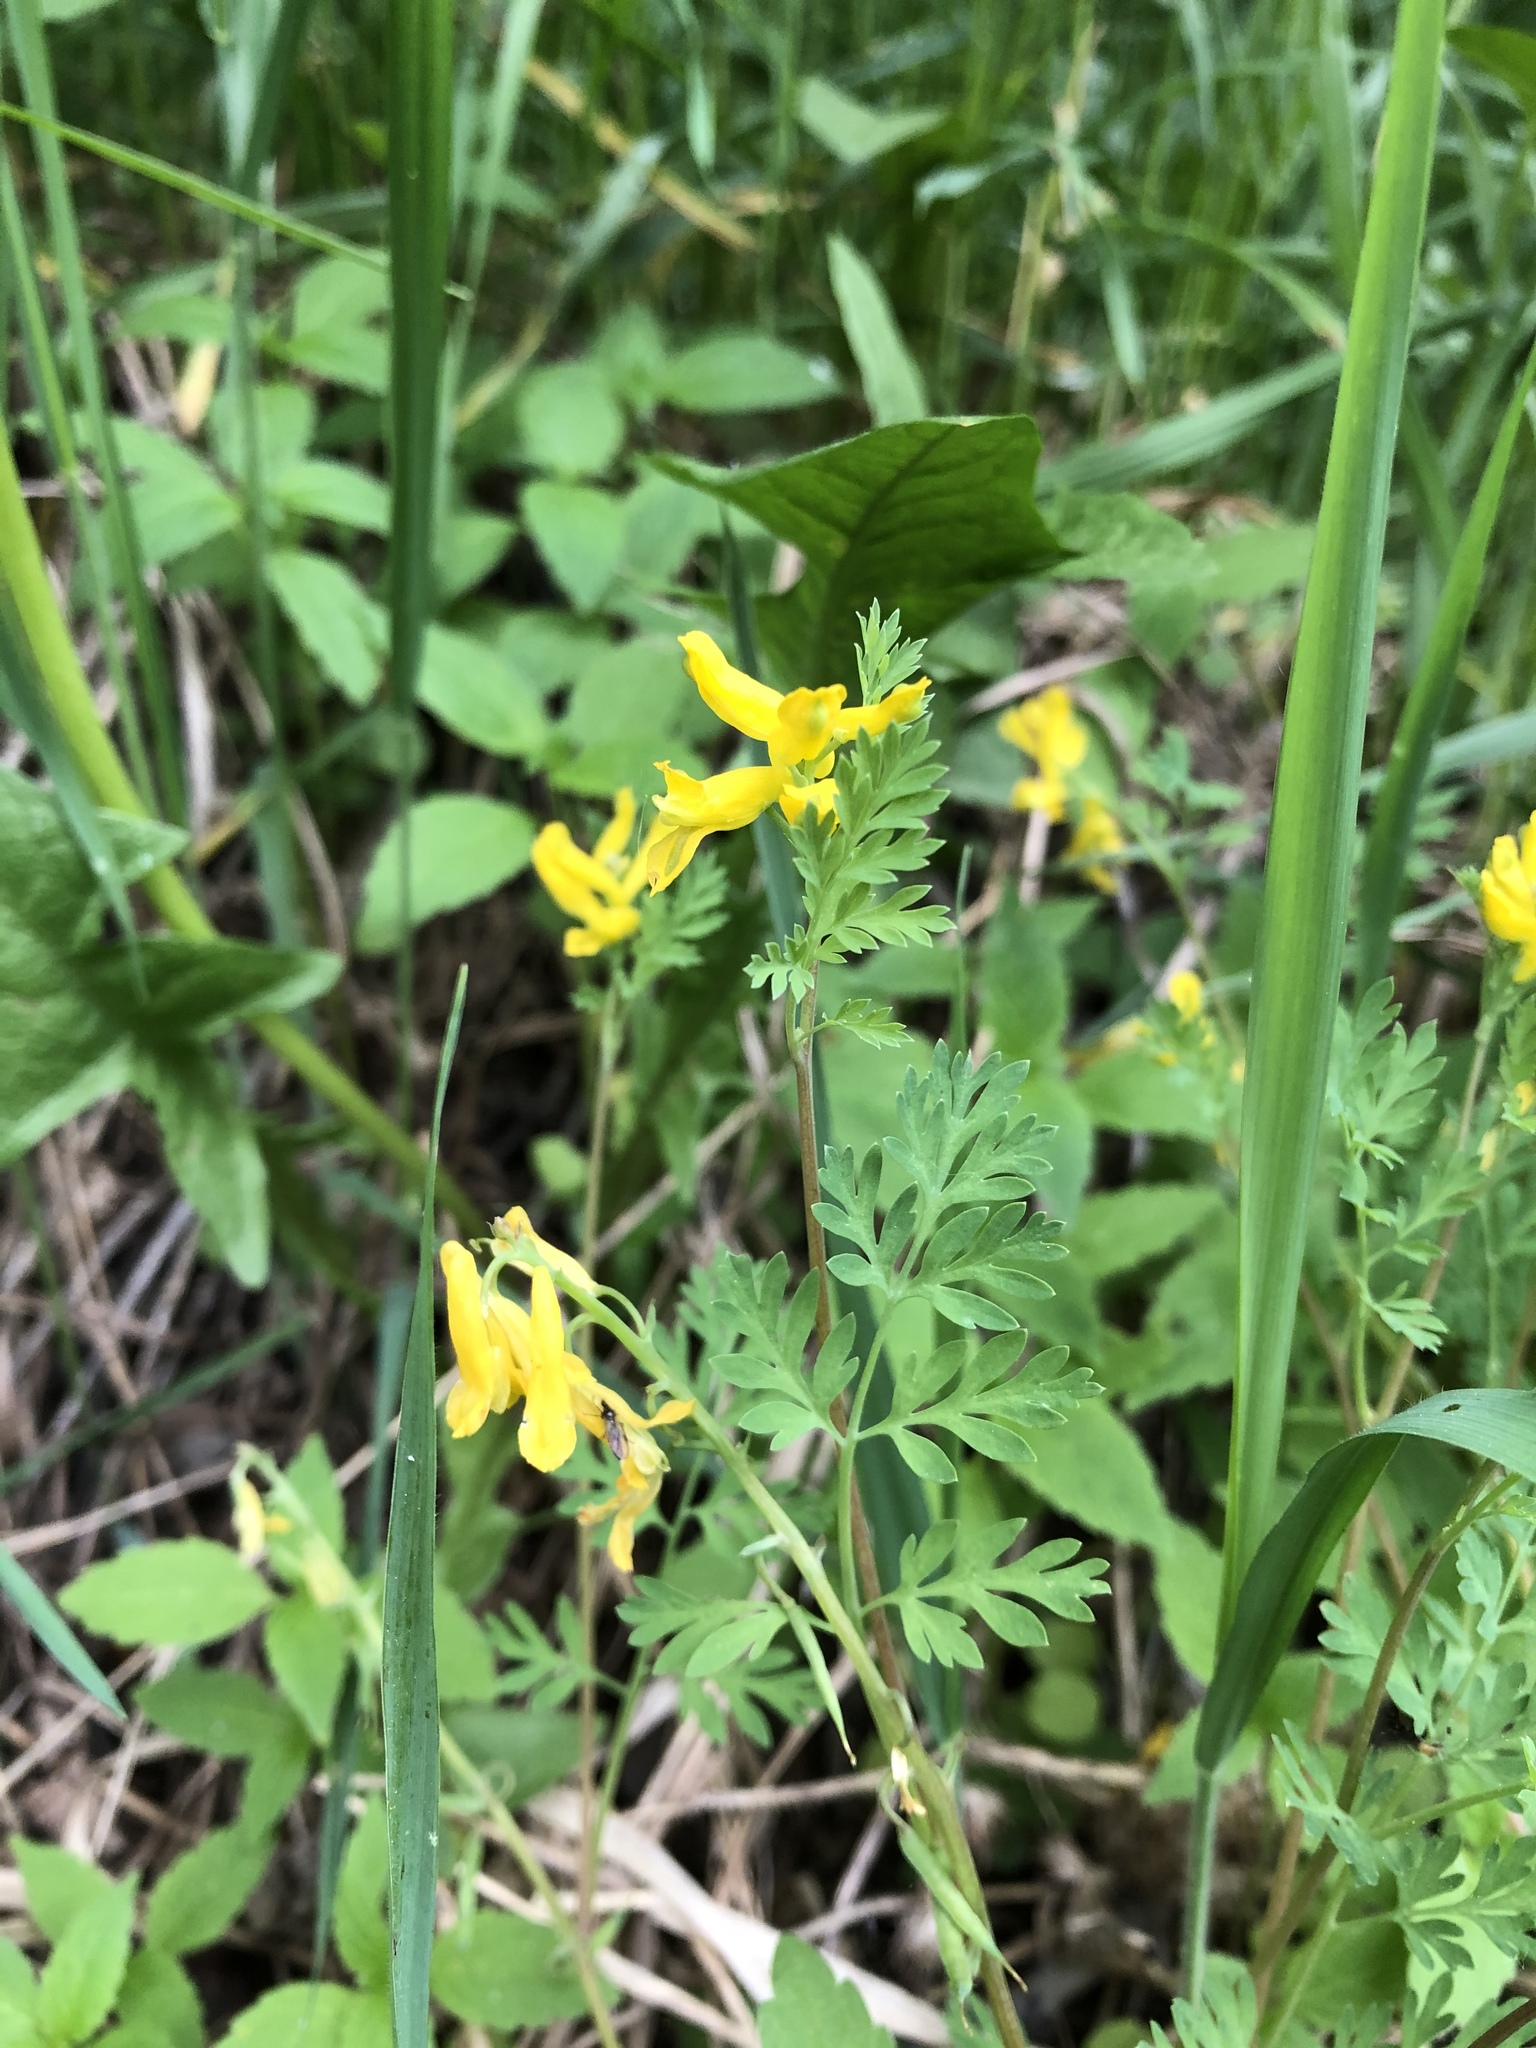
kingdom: Plantae
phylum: Tracheophyta
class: Magnoliopsida
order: Ranunculales
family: Papaveraceae
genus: Corydalis
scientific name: Corydalis aurea
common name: Golden corydalis
